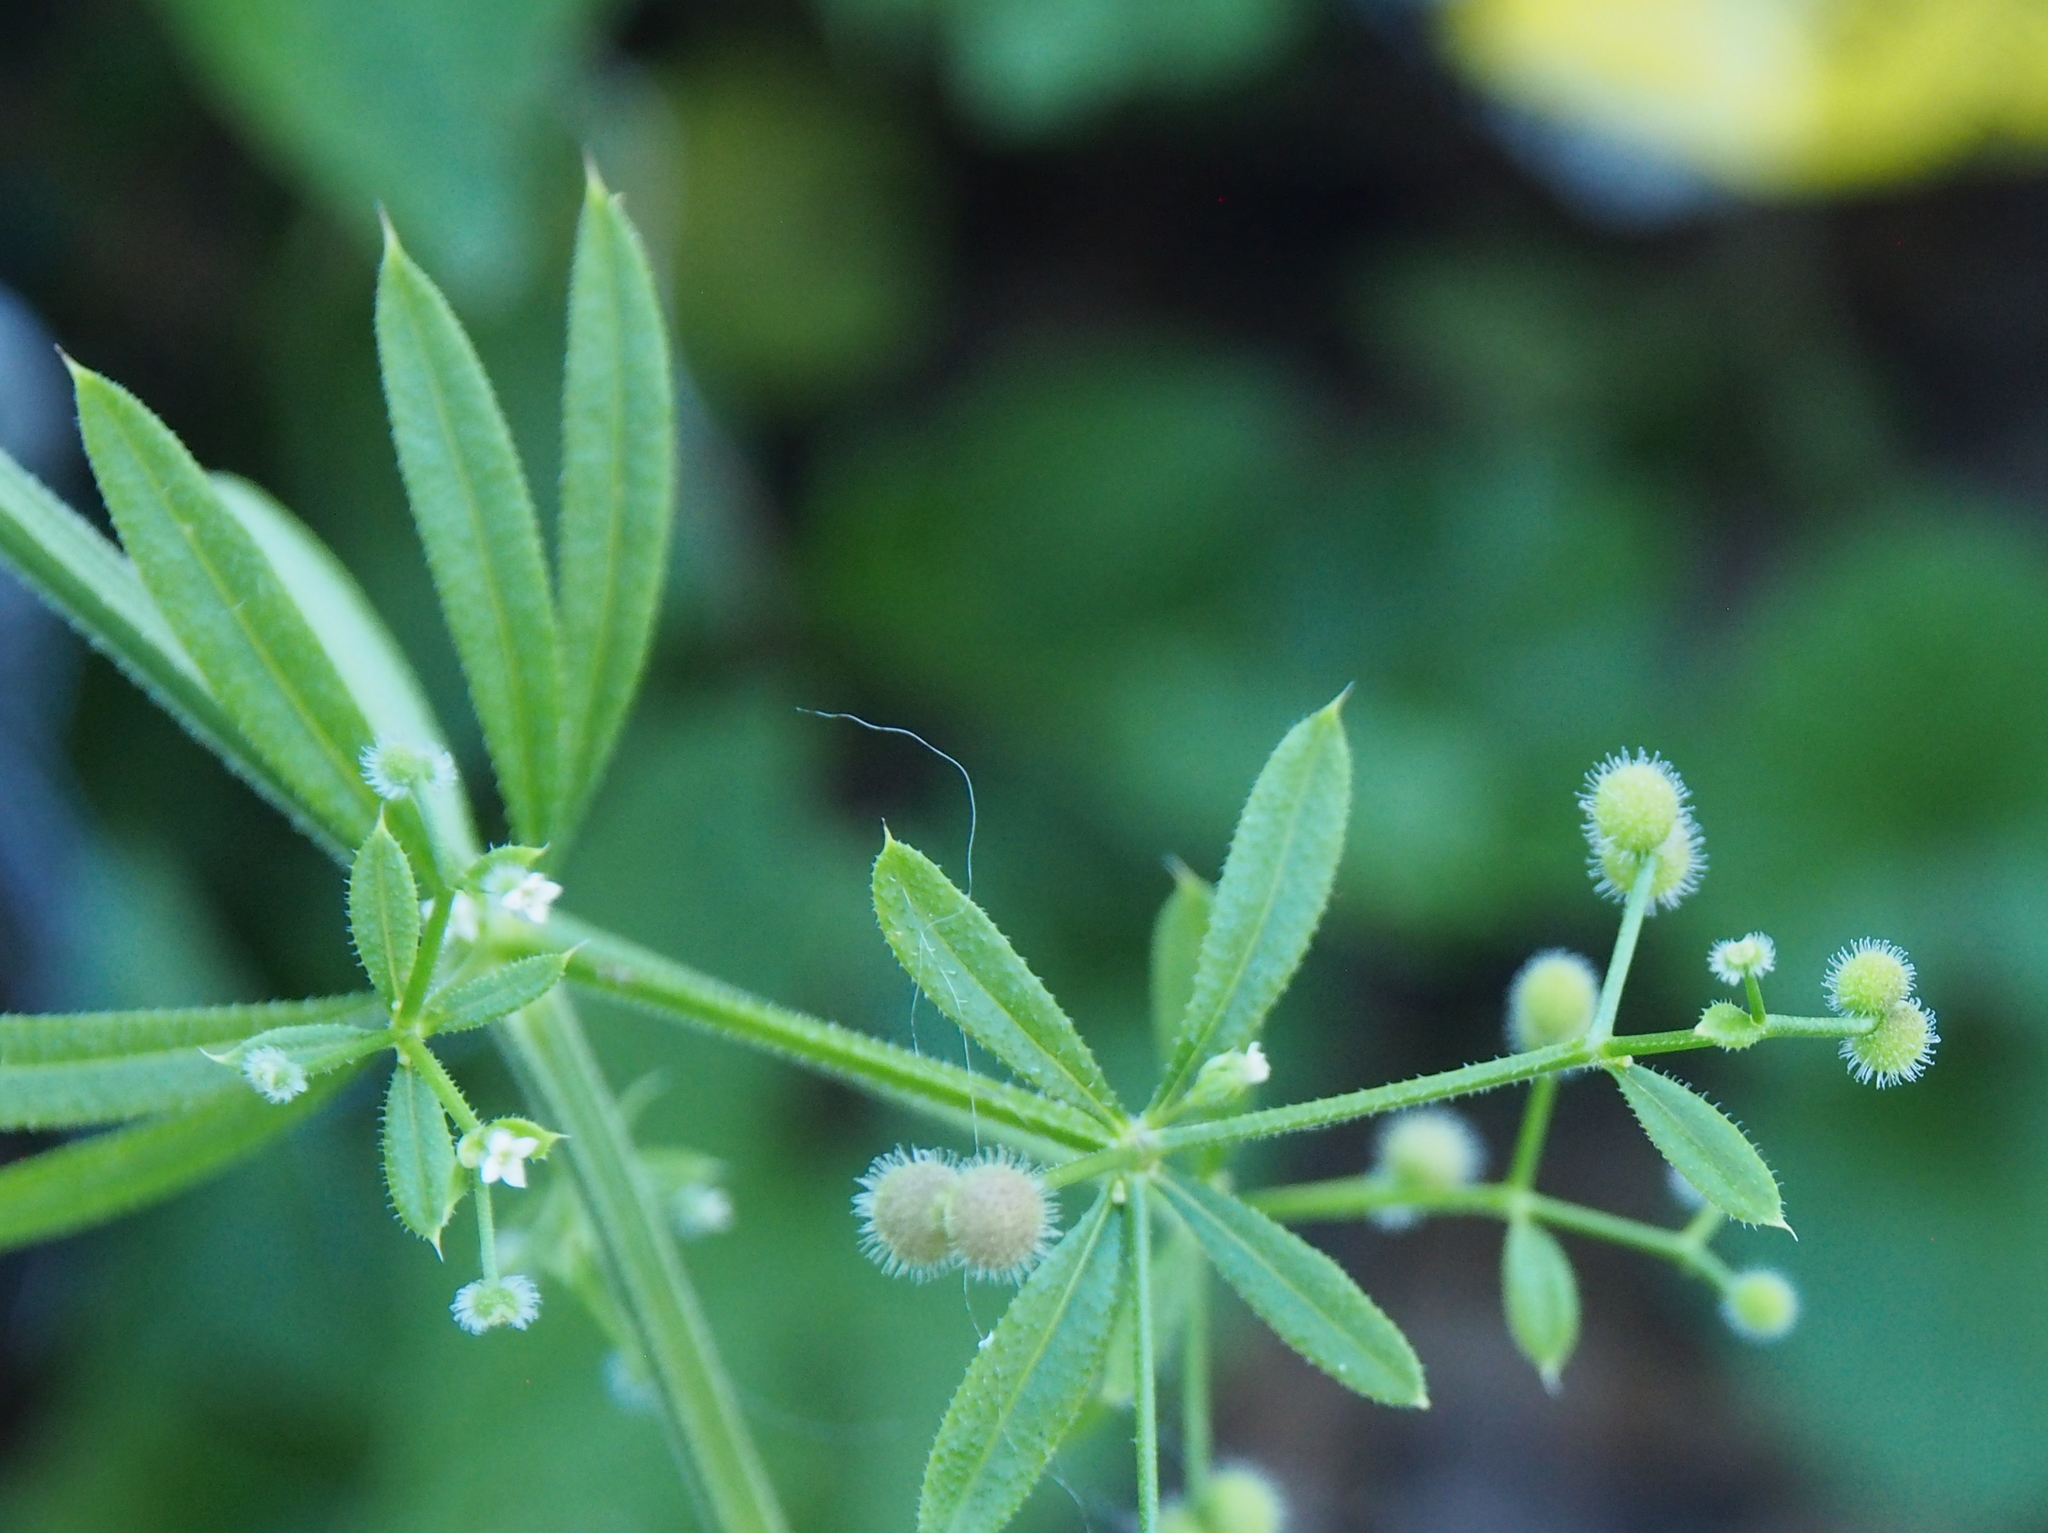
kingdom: Plantae
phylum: Tracheophyta
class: Magnoliopsida
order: Gentianales
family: Rubiaceae
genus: Galium
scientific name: Galium aparine
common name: Cleavers
